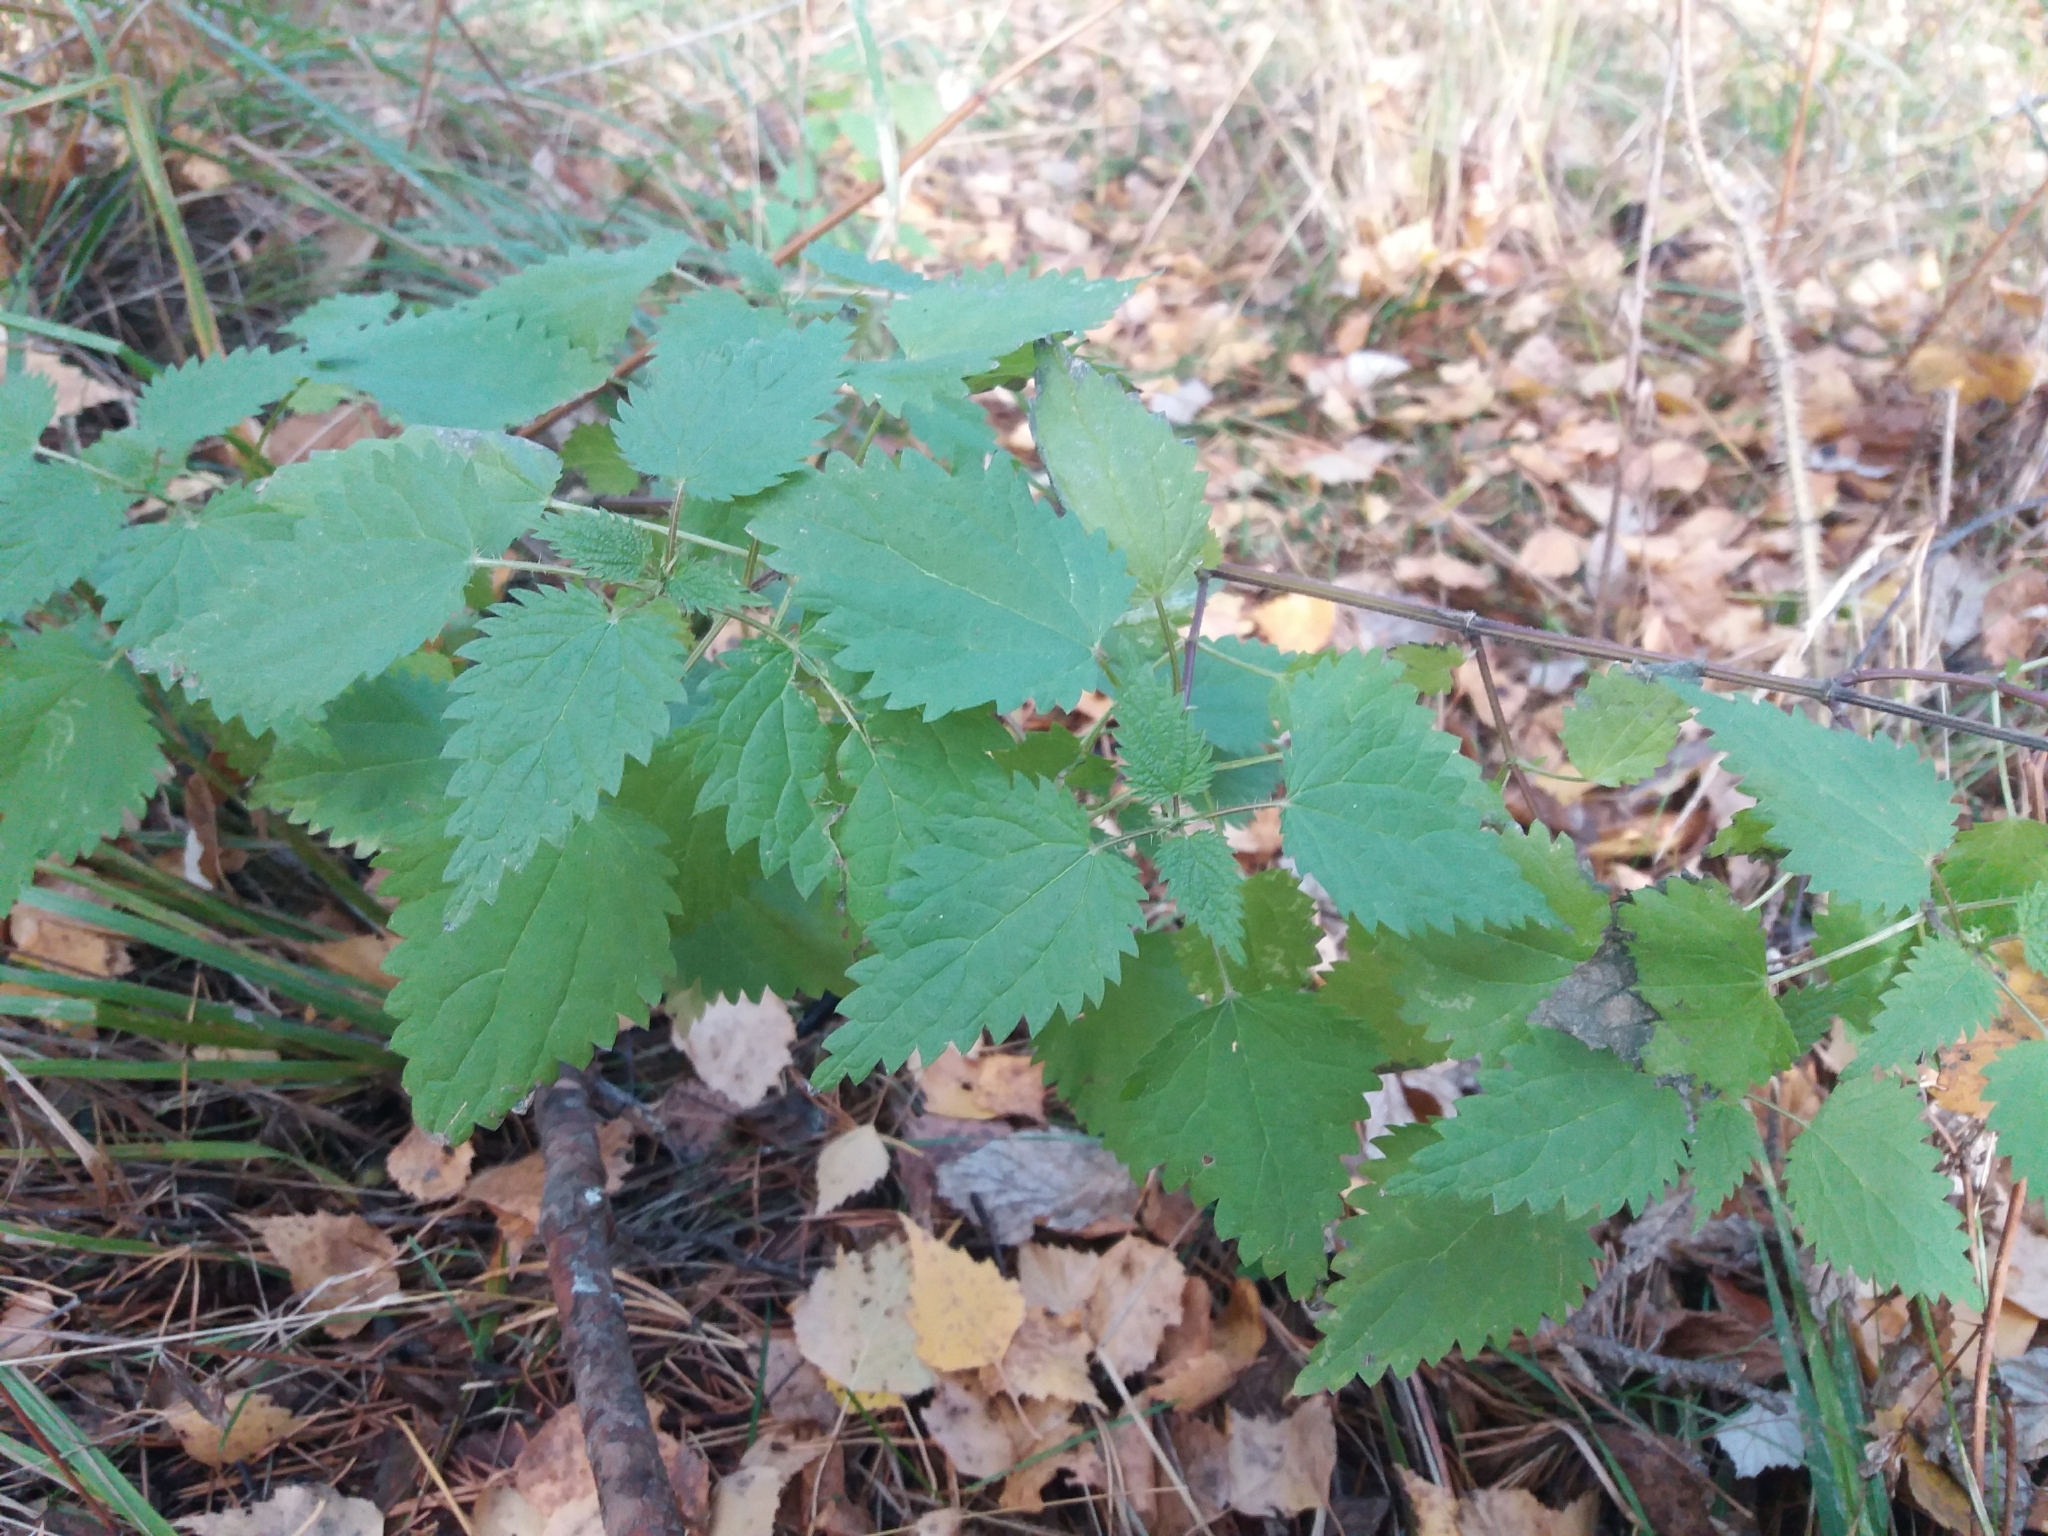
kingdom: Plantae
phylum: Tracheophyta
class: Magnoliopsida
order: Rosales
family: Urticaceae
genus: Urtica
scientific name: Urtica dioica
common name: Common nettle
